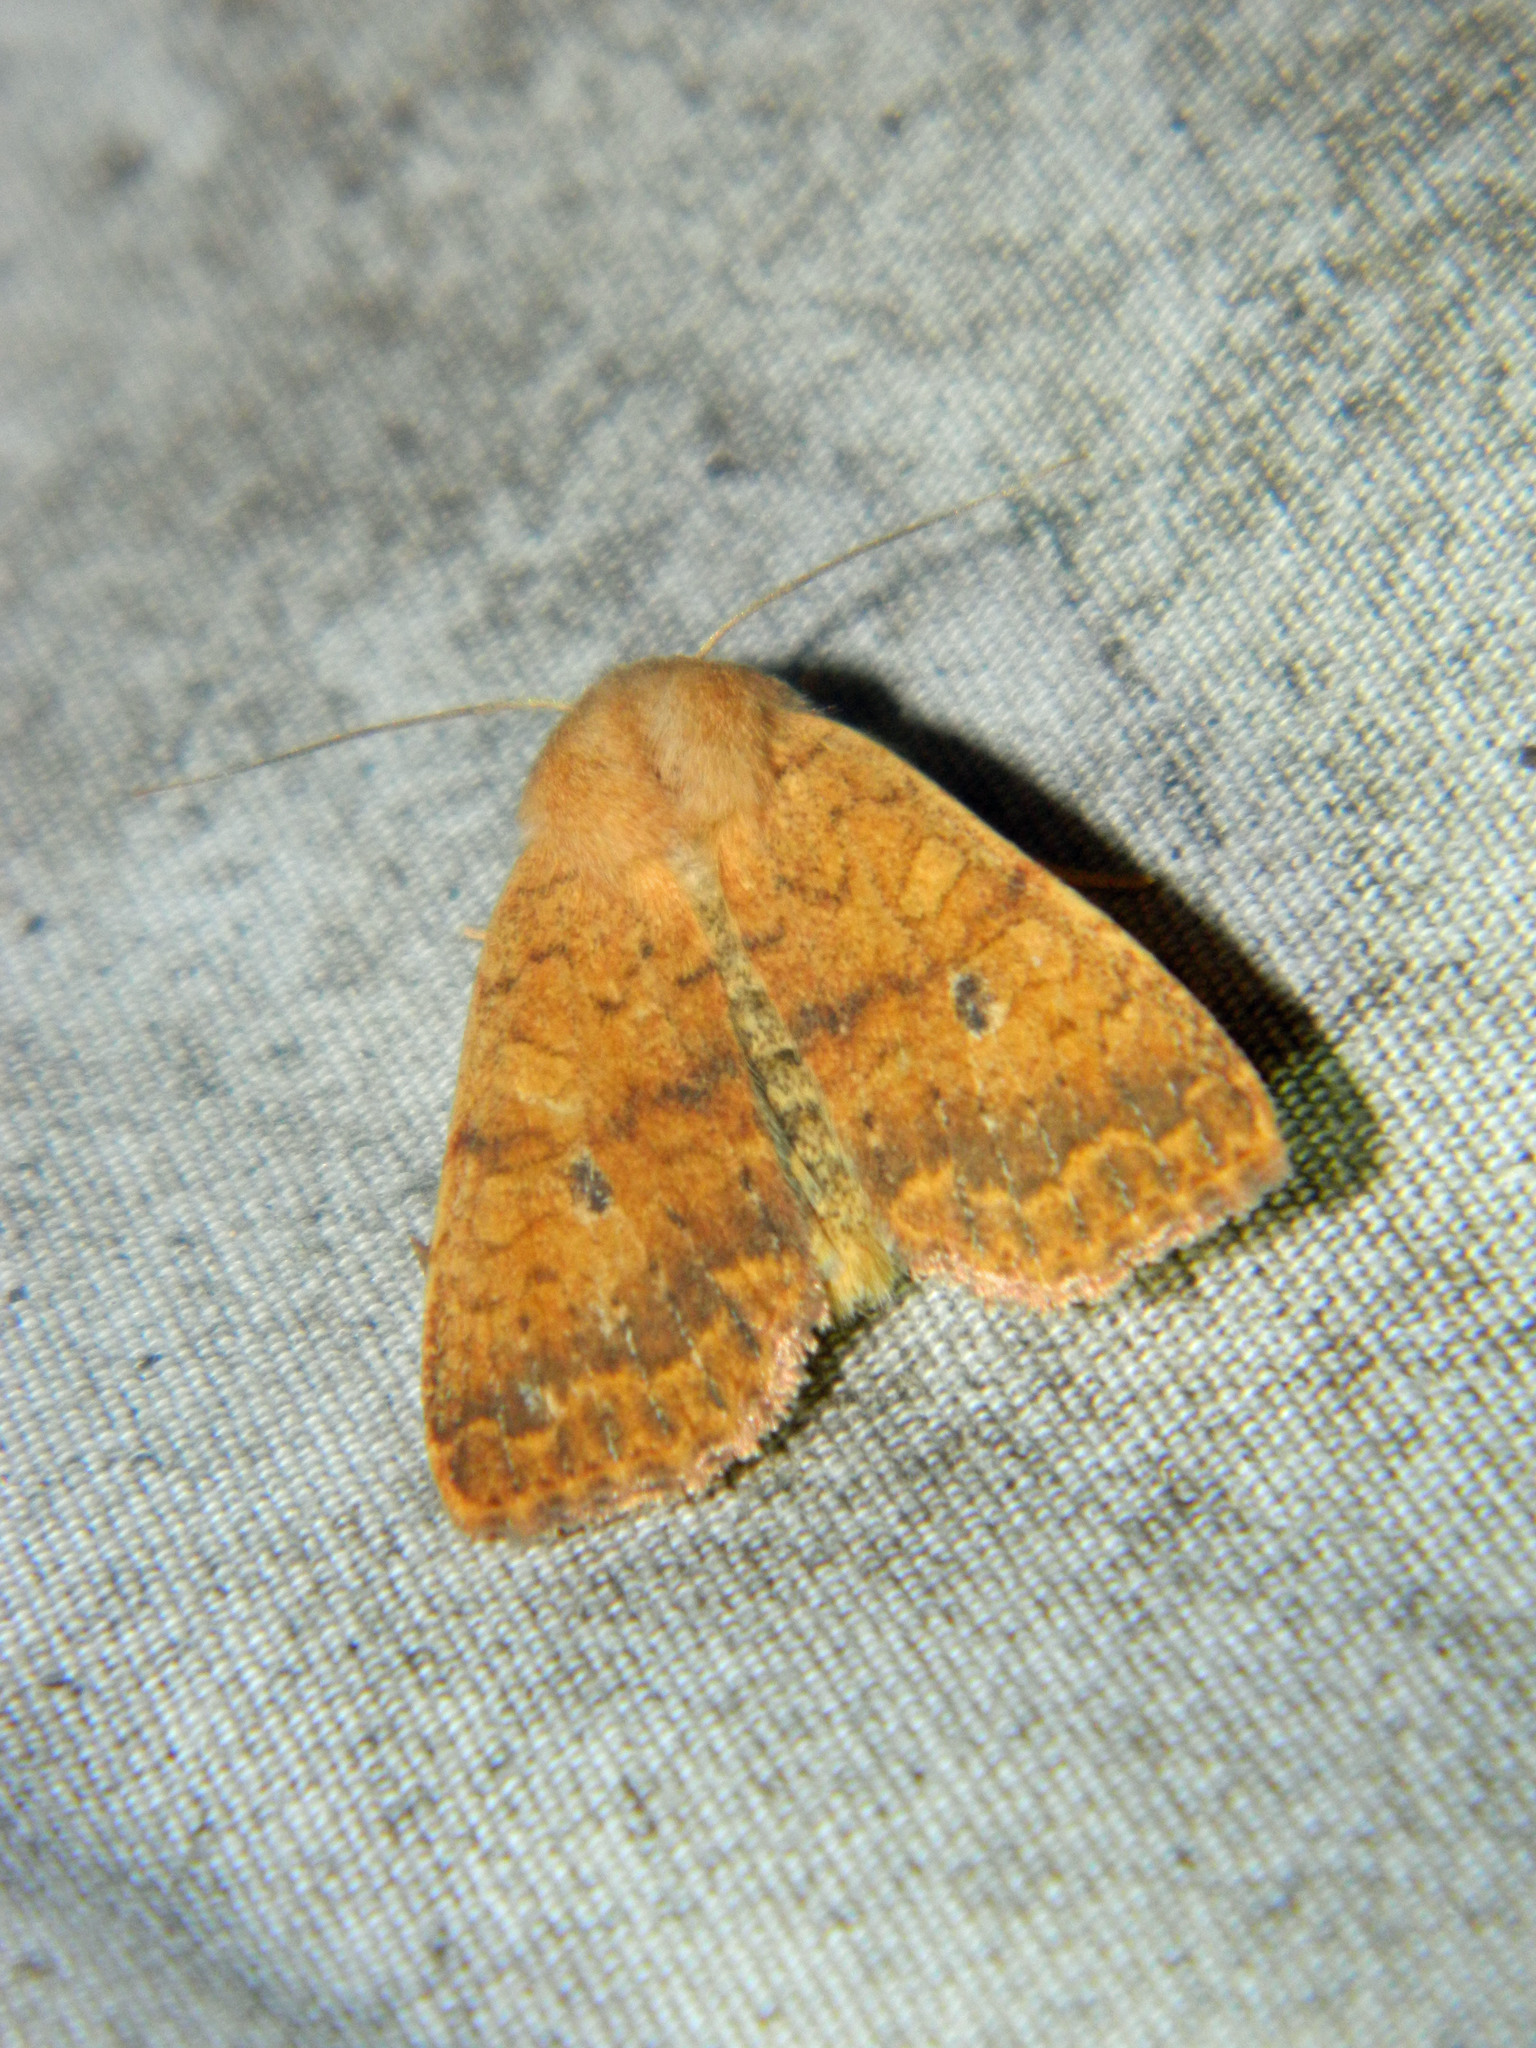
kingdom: Animalia
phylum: Arthropoda
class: Insecta
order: Lepidoptera
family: Noctuidae
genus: Agrochola
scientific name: Agrochola bicolorago
